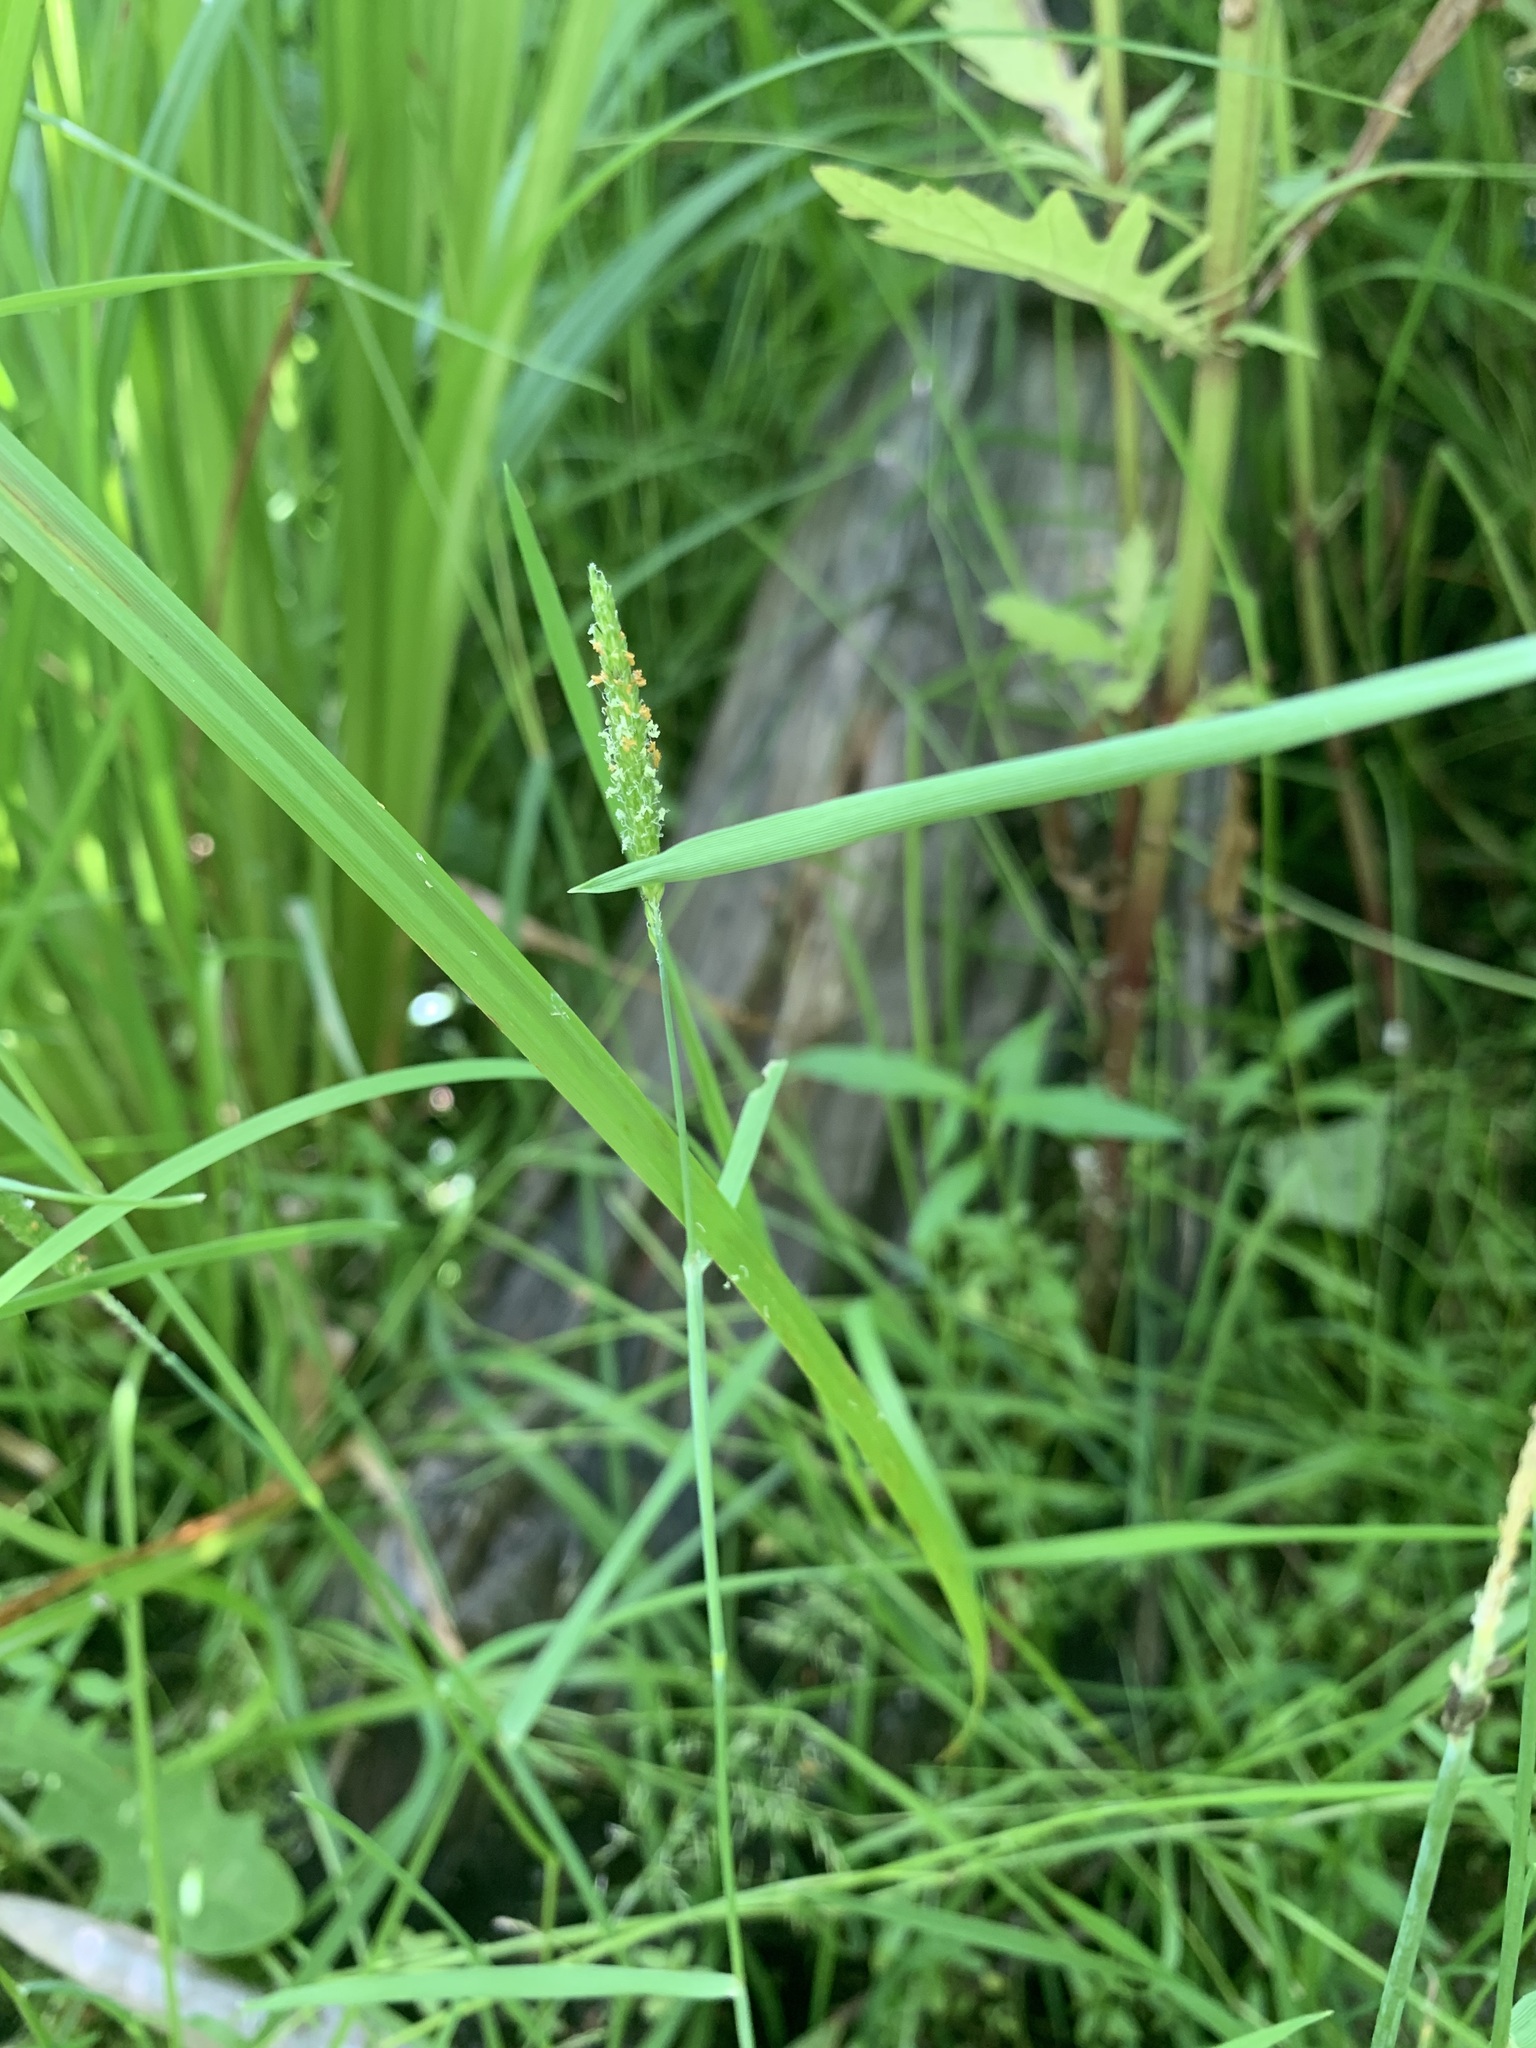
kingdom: Plantae
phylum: Tracheophyta
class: Liliopsida
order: Poales
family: Poaceae
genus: Alopecurus
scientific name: Alopecurus aequalis
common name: Orange foxtail
